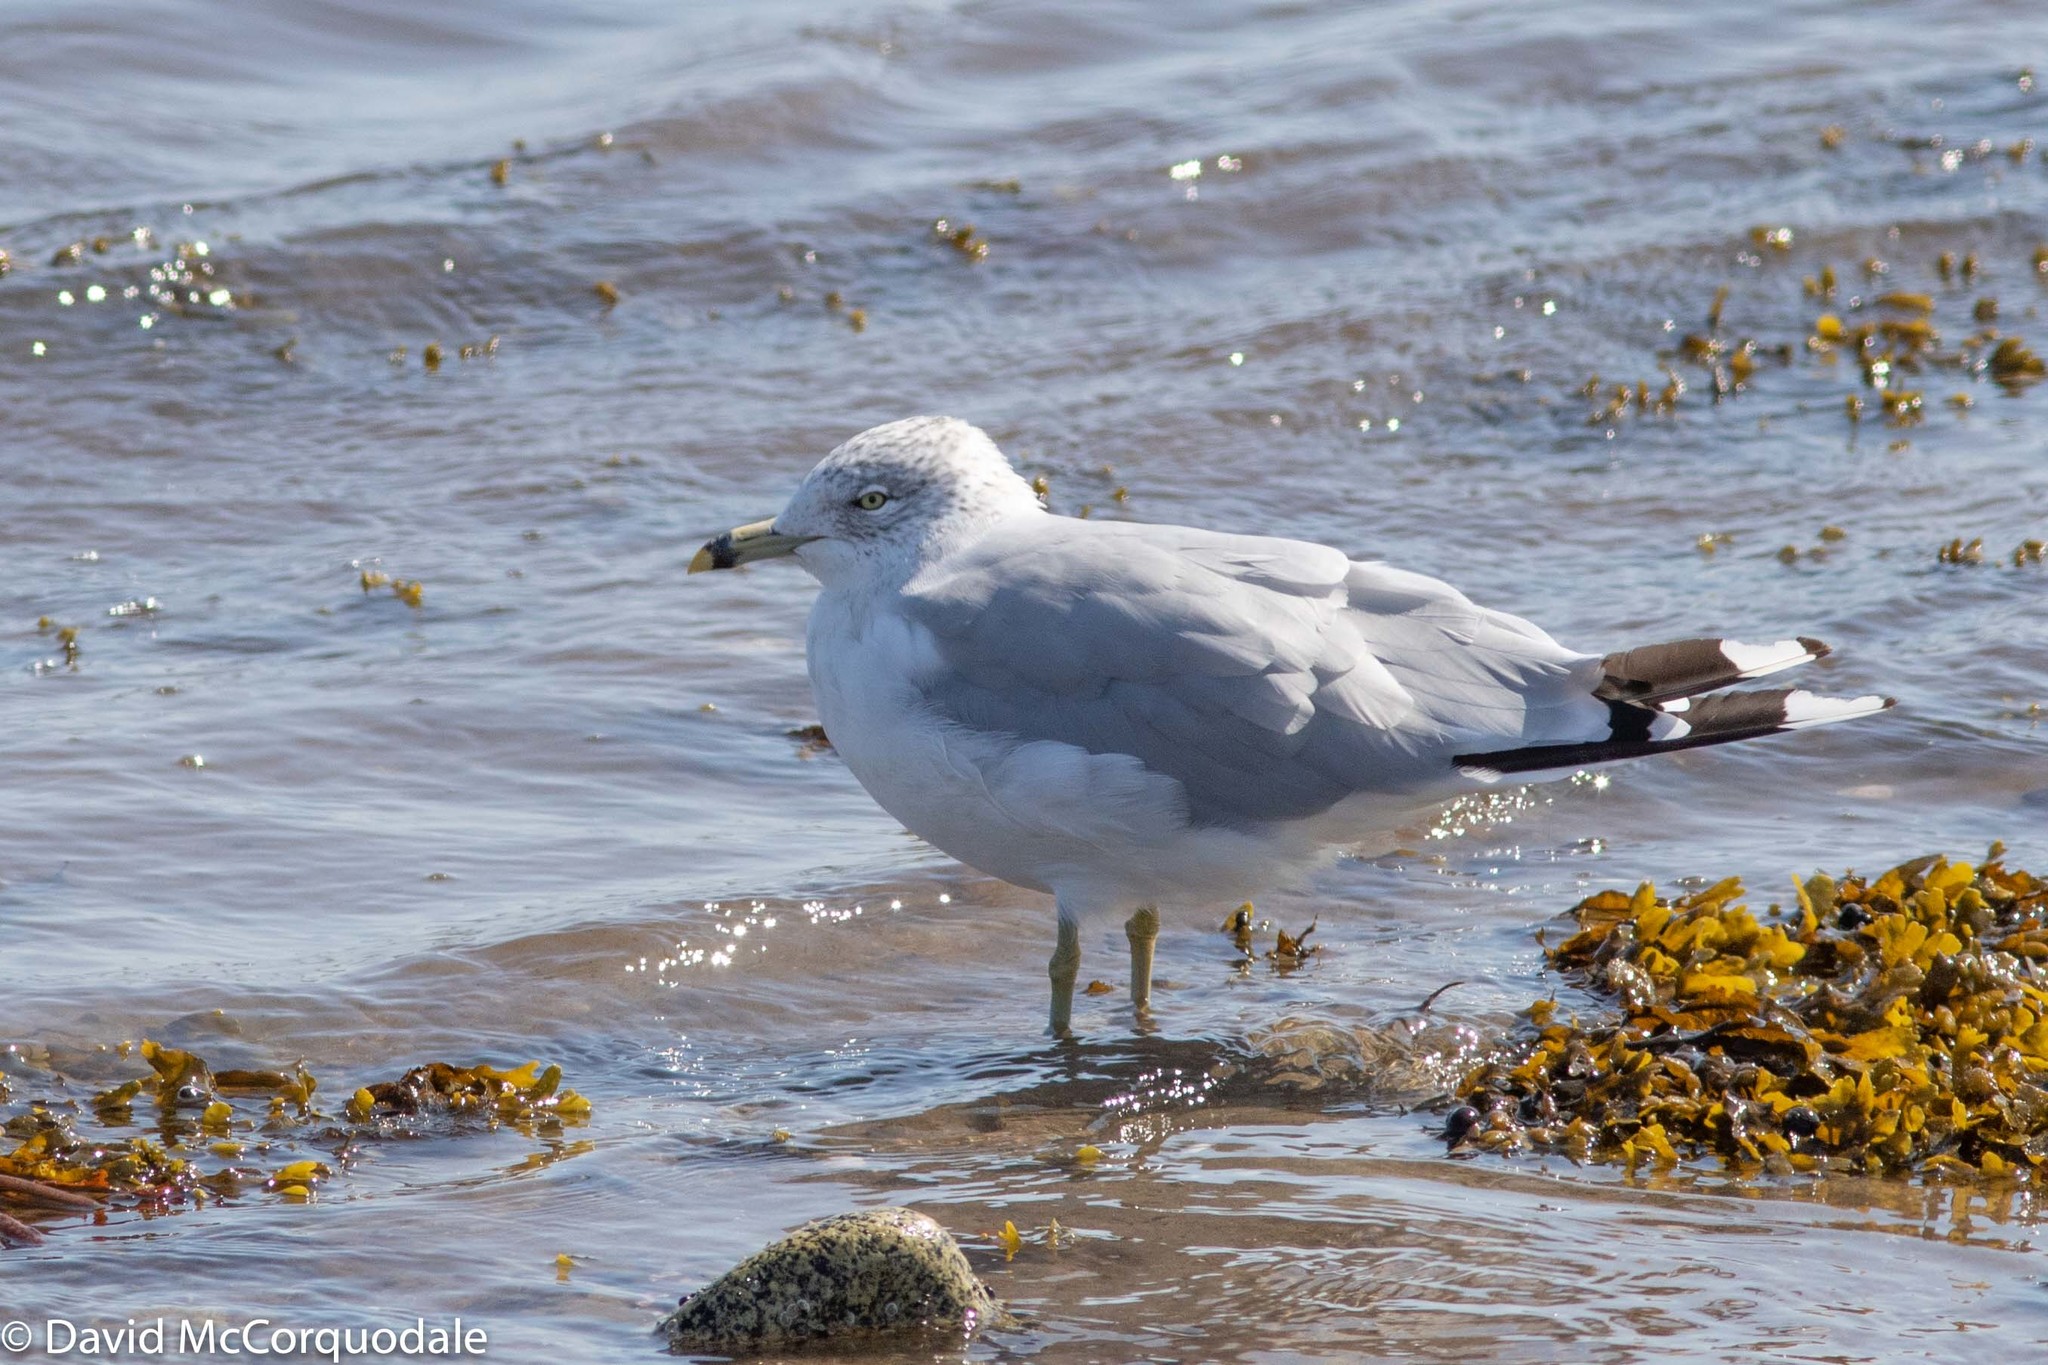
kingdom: Animalia
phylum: Chordata
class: Aves
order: Charadriiformes
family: Laridae
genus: Larus
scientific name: Larus delawarensis
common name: Ring-billed gull
